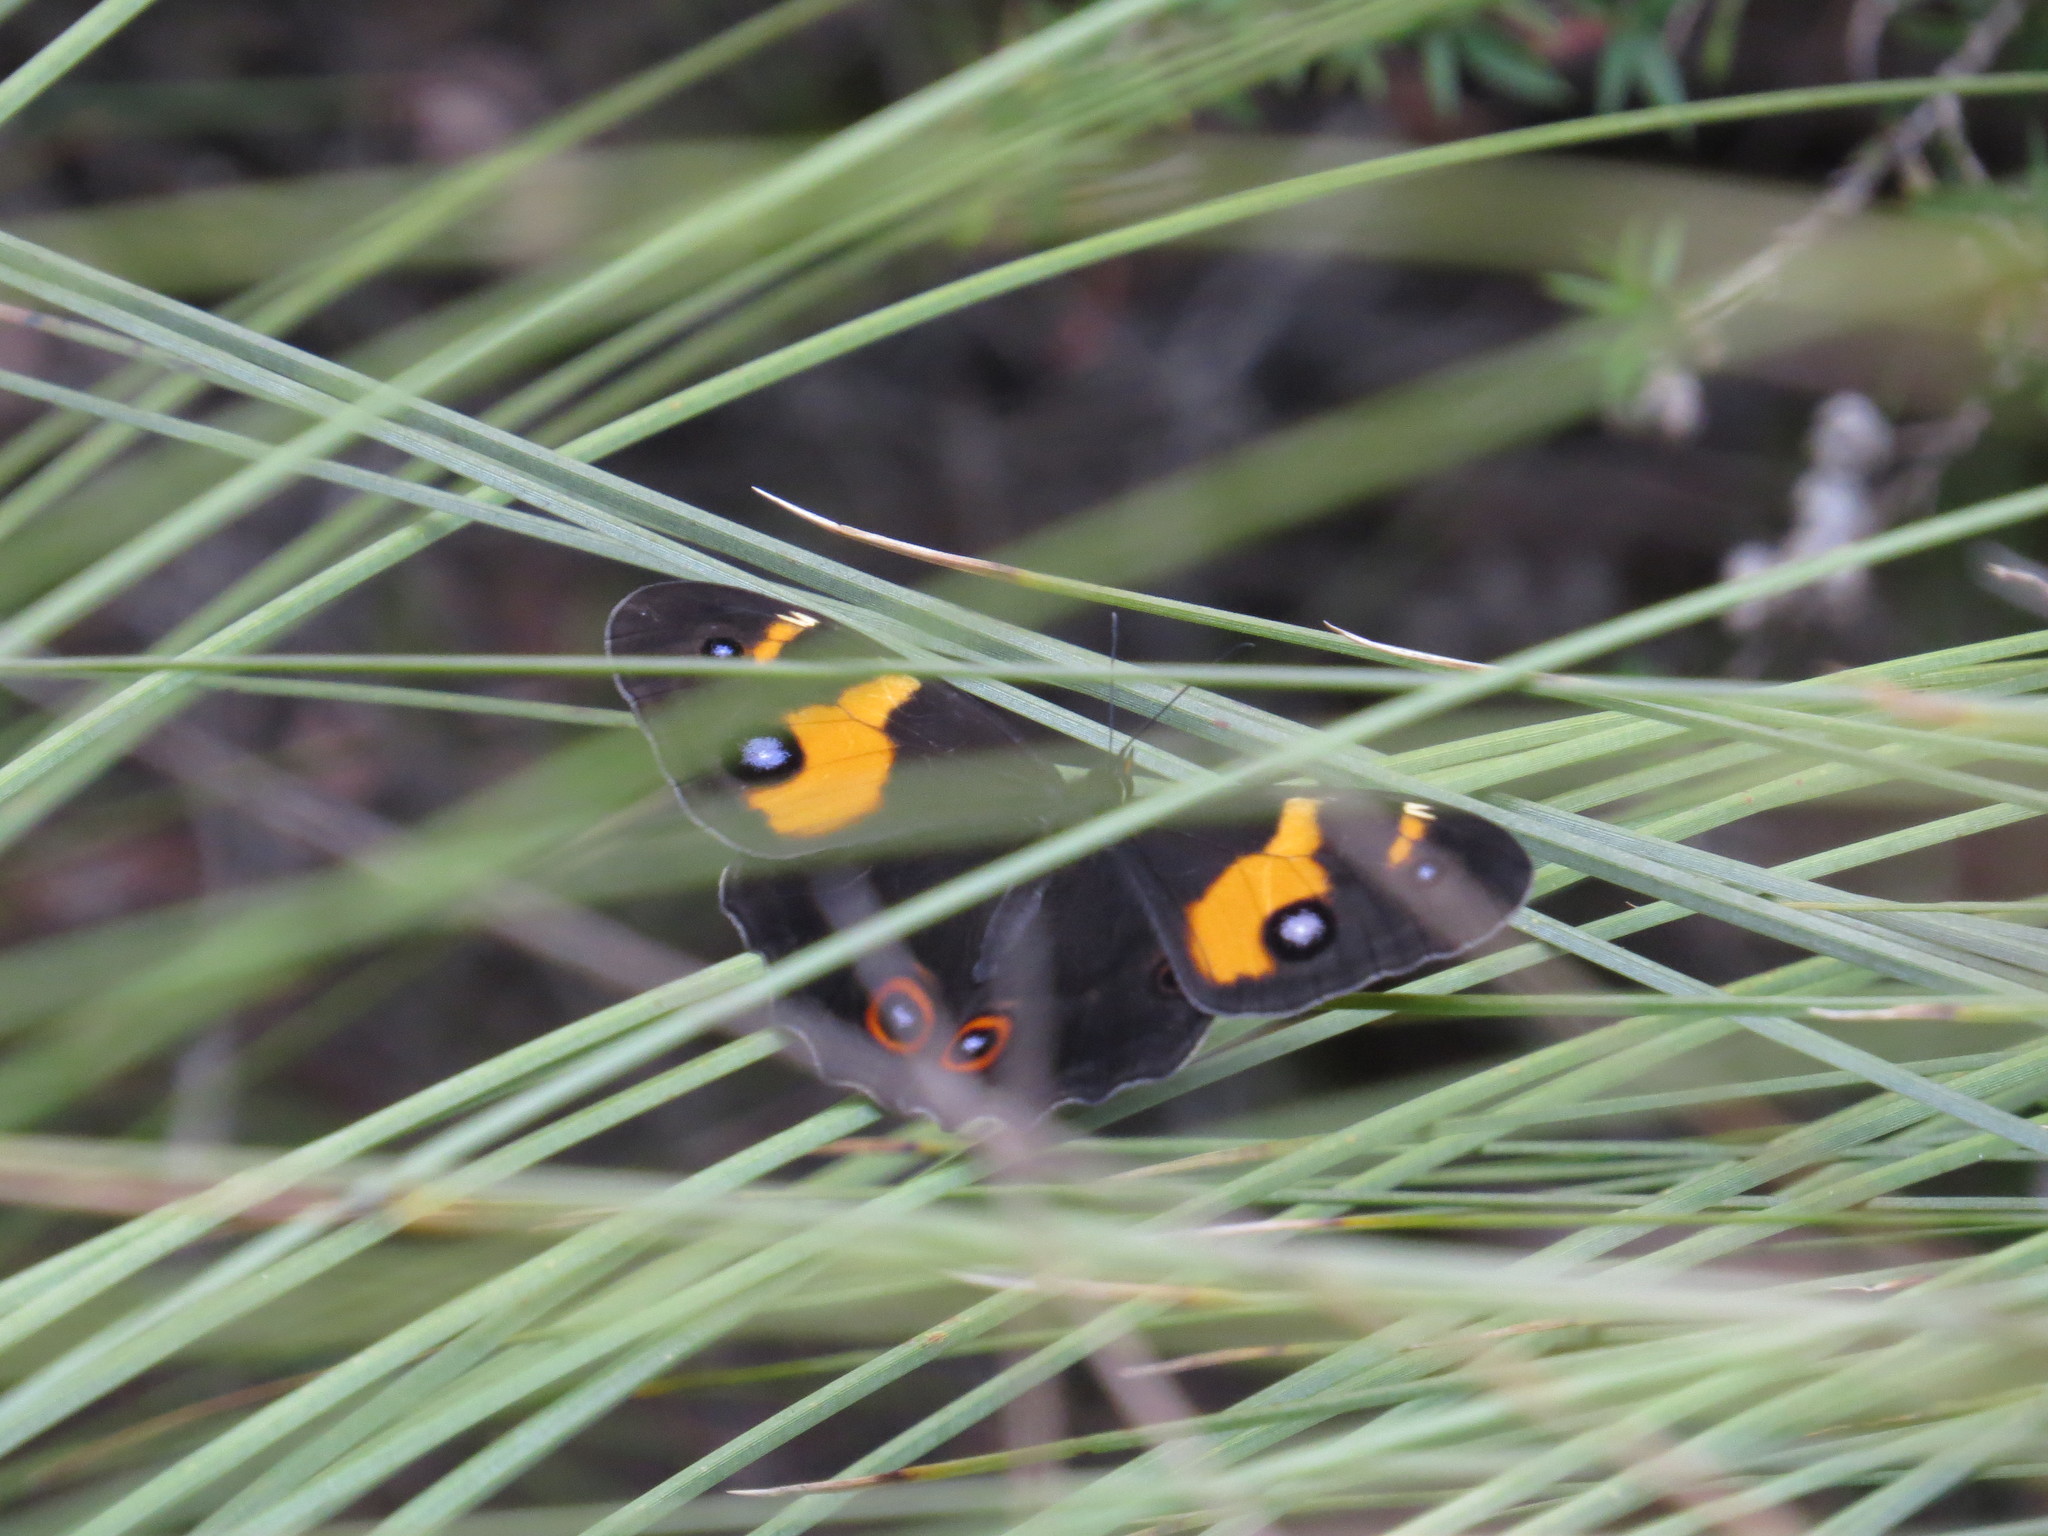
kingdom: Animalia
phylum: Arthropoda
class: Insecta
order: Lepidoptera
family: Nymphalidae
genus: Tisiphone
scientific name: Tisiphone abeona
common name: Swordgrass brown
